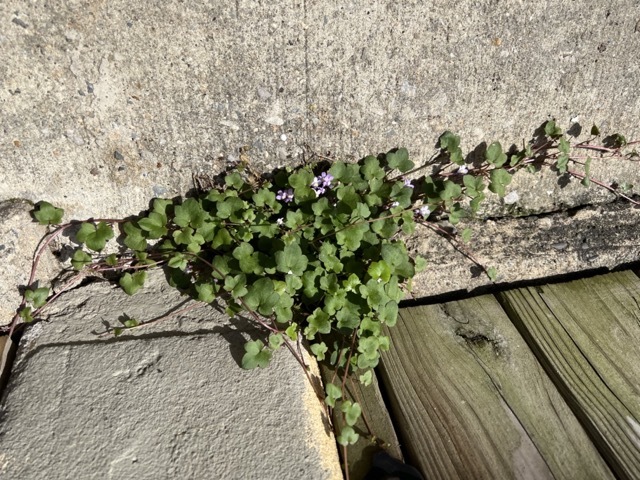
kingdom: Plantae
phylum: Tracheophyta
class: Magnoliopsida
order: Lamiales
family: Plantaginaceae
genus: Cymbalaria
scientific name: Cymbalaria muralis
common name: Ivy-leaved toadflax
